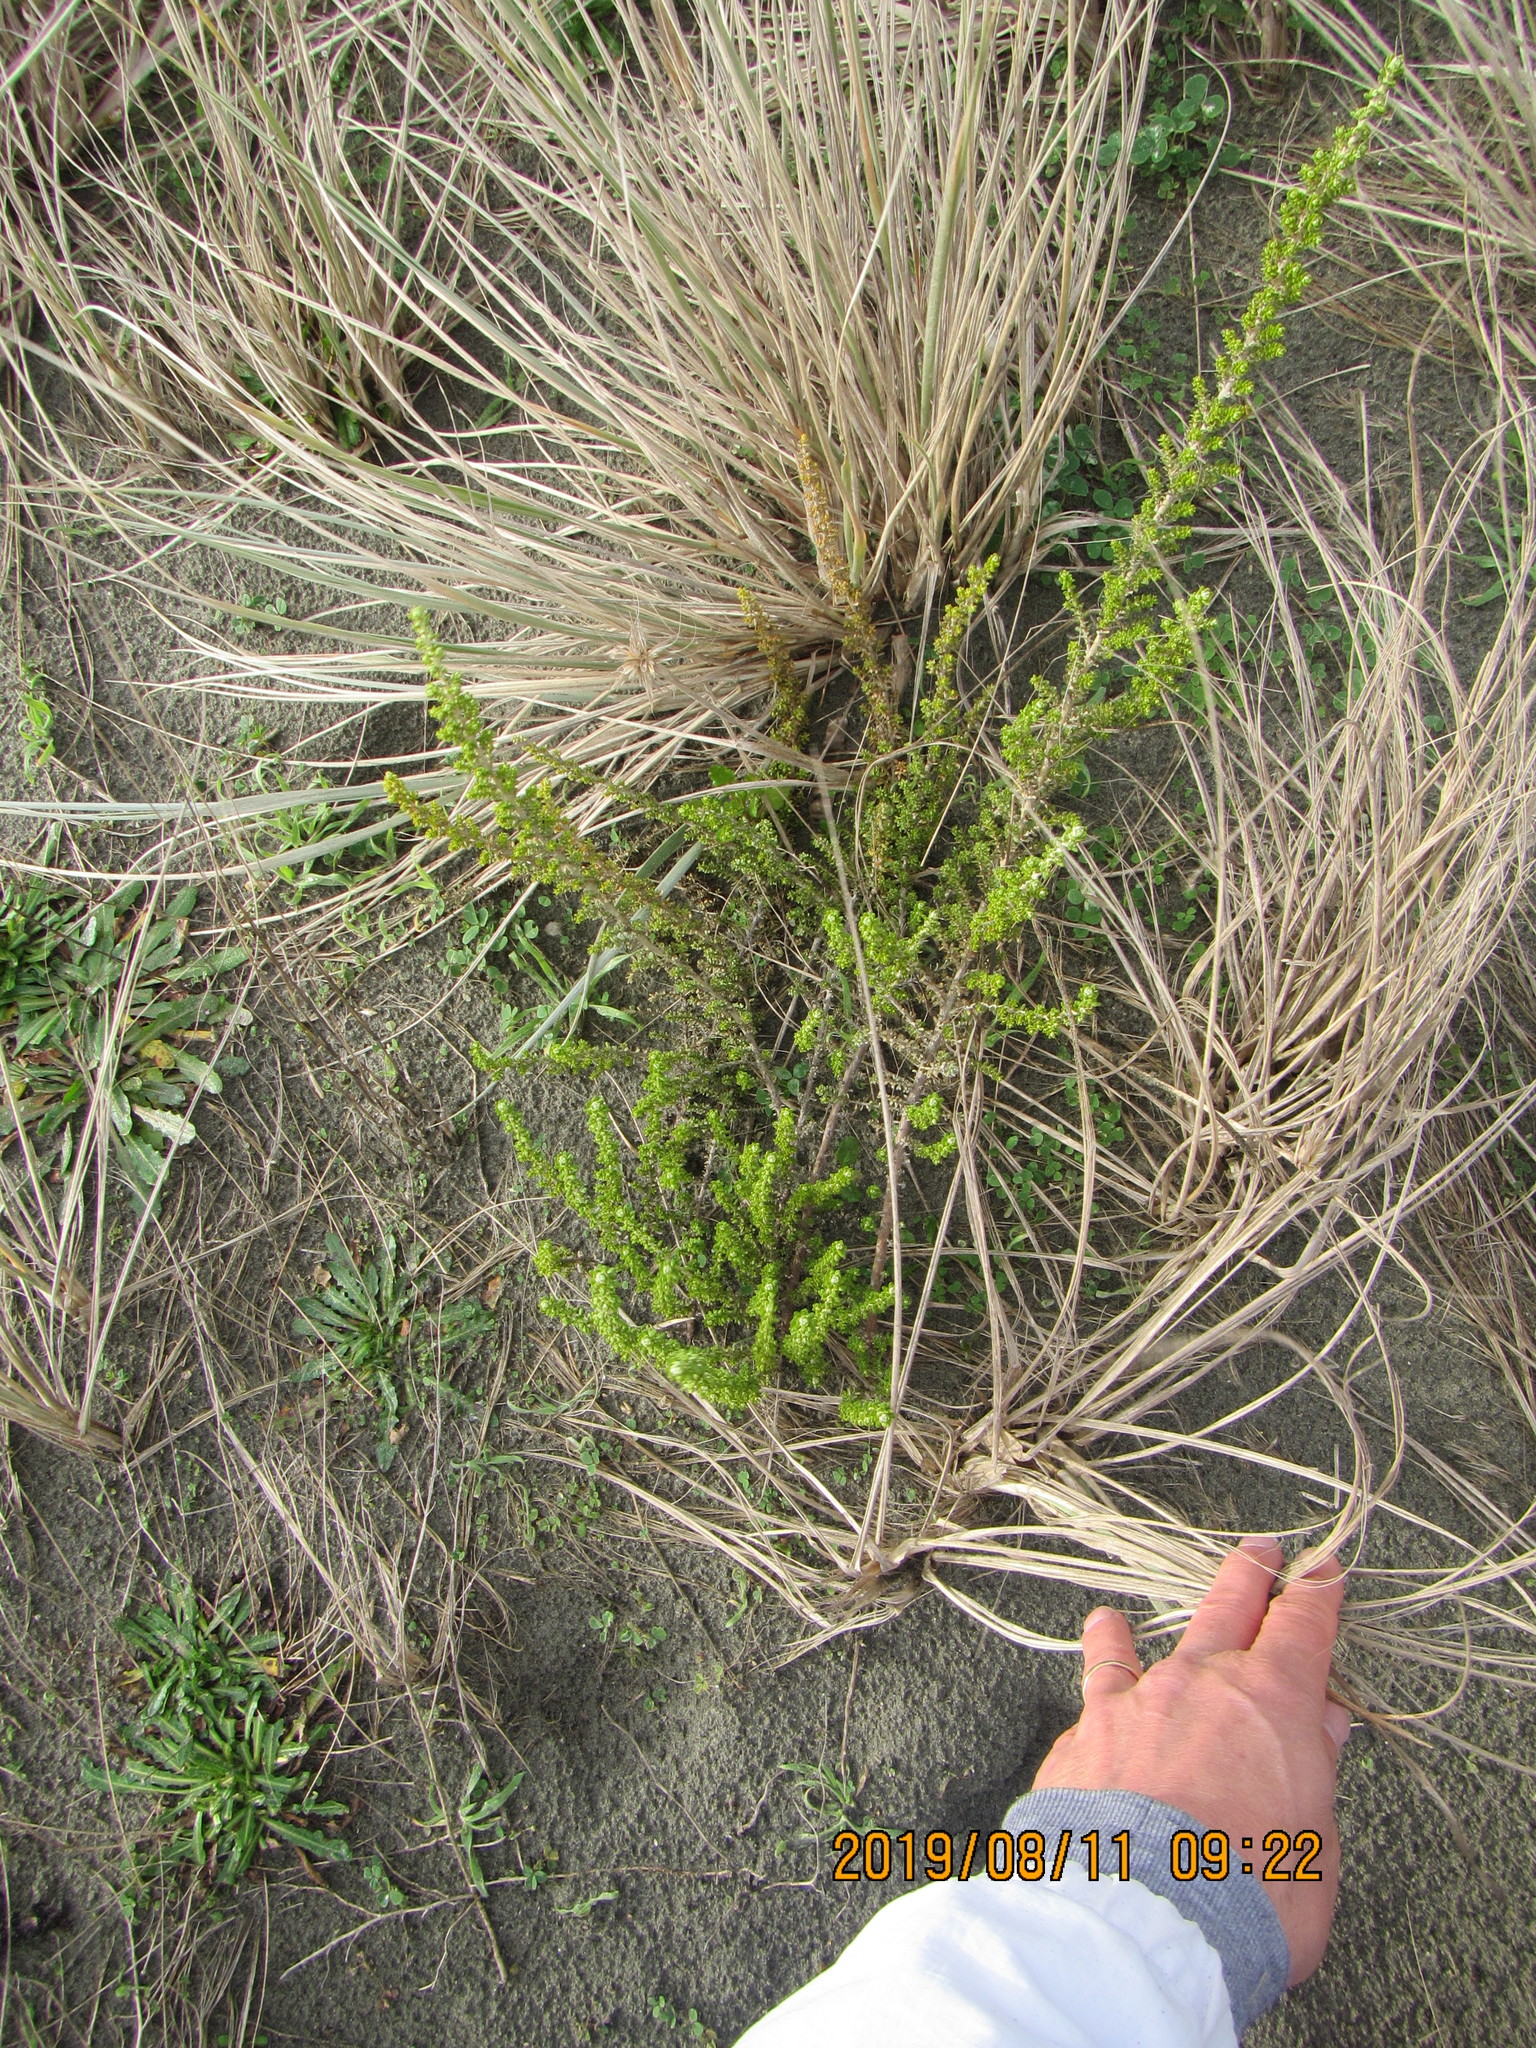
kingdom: Plantae
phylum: Tracheophyta
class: Magnoliopsida
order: Asterales
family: Asteraceae
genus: Ozothamnus
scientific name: Ozothamnus leptophyllus
